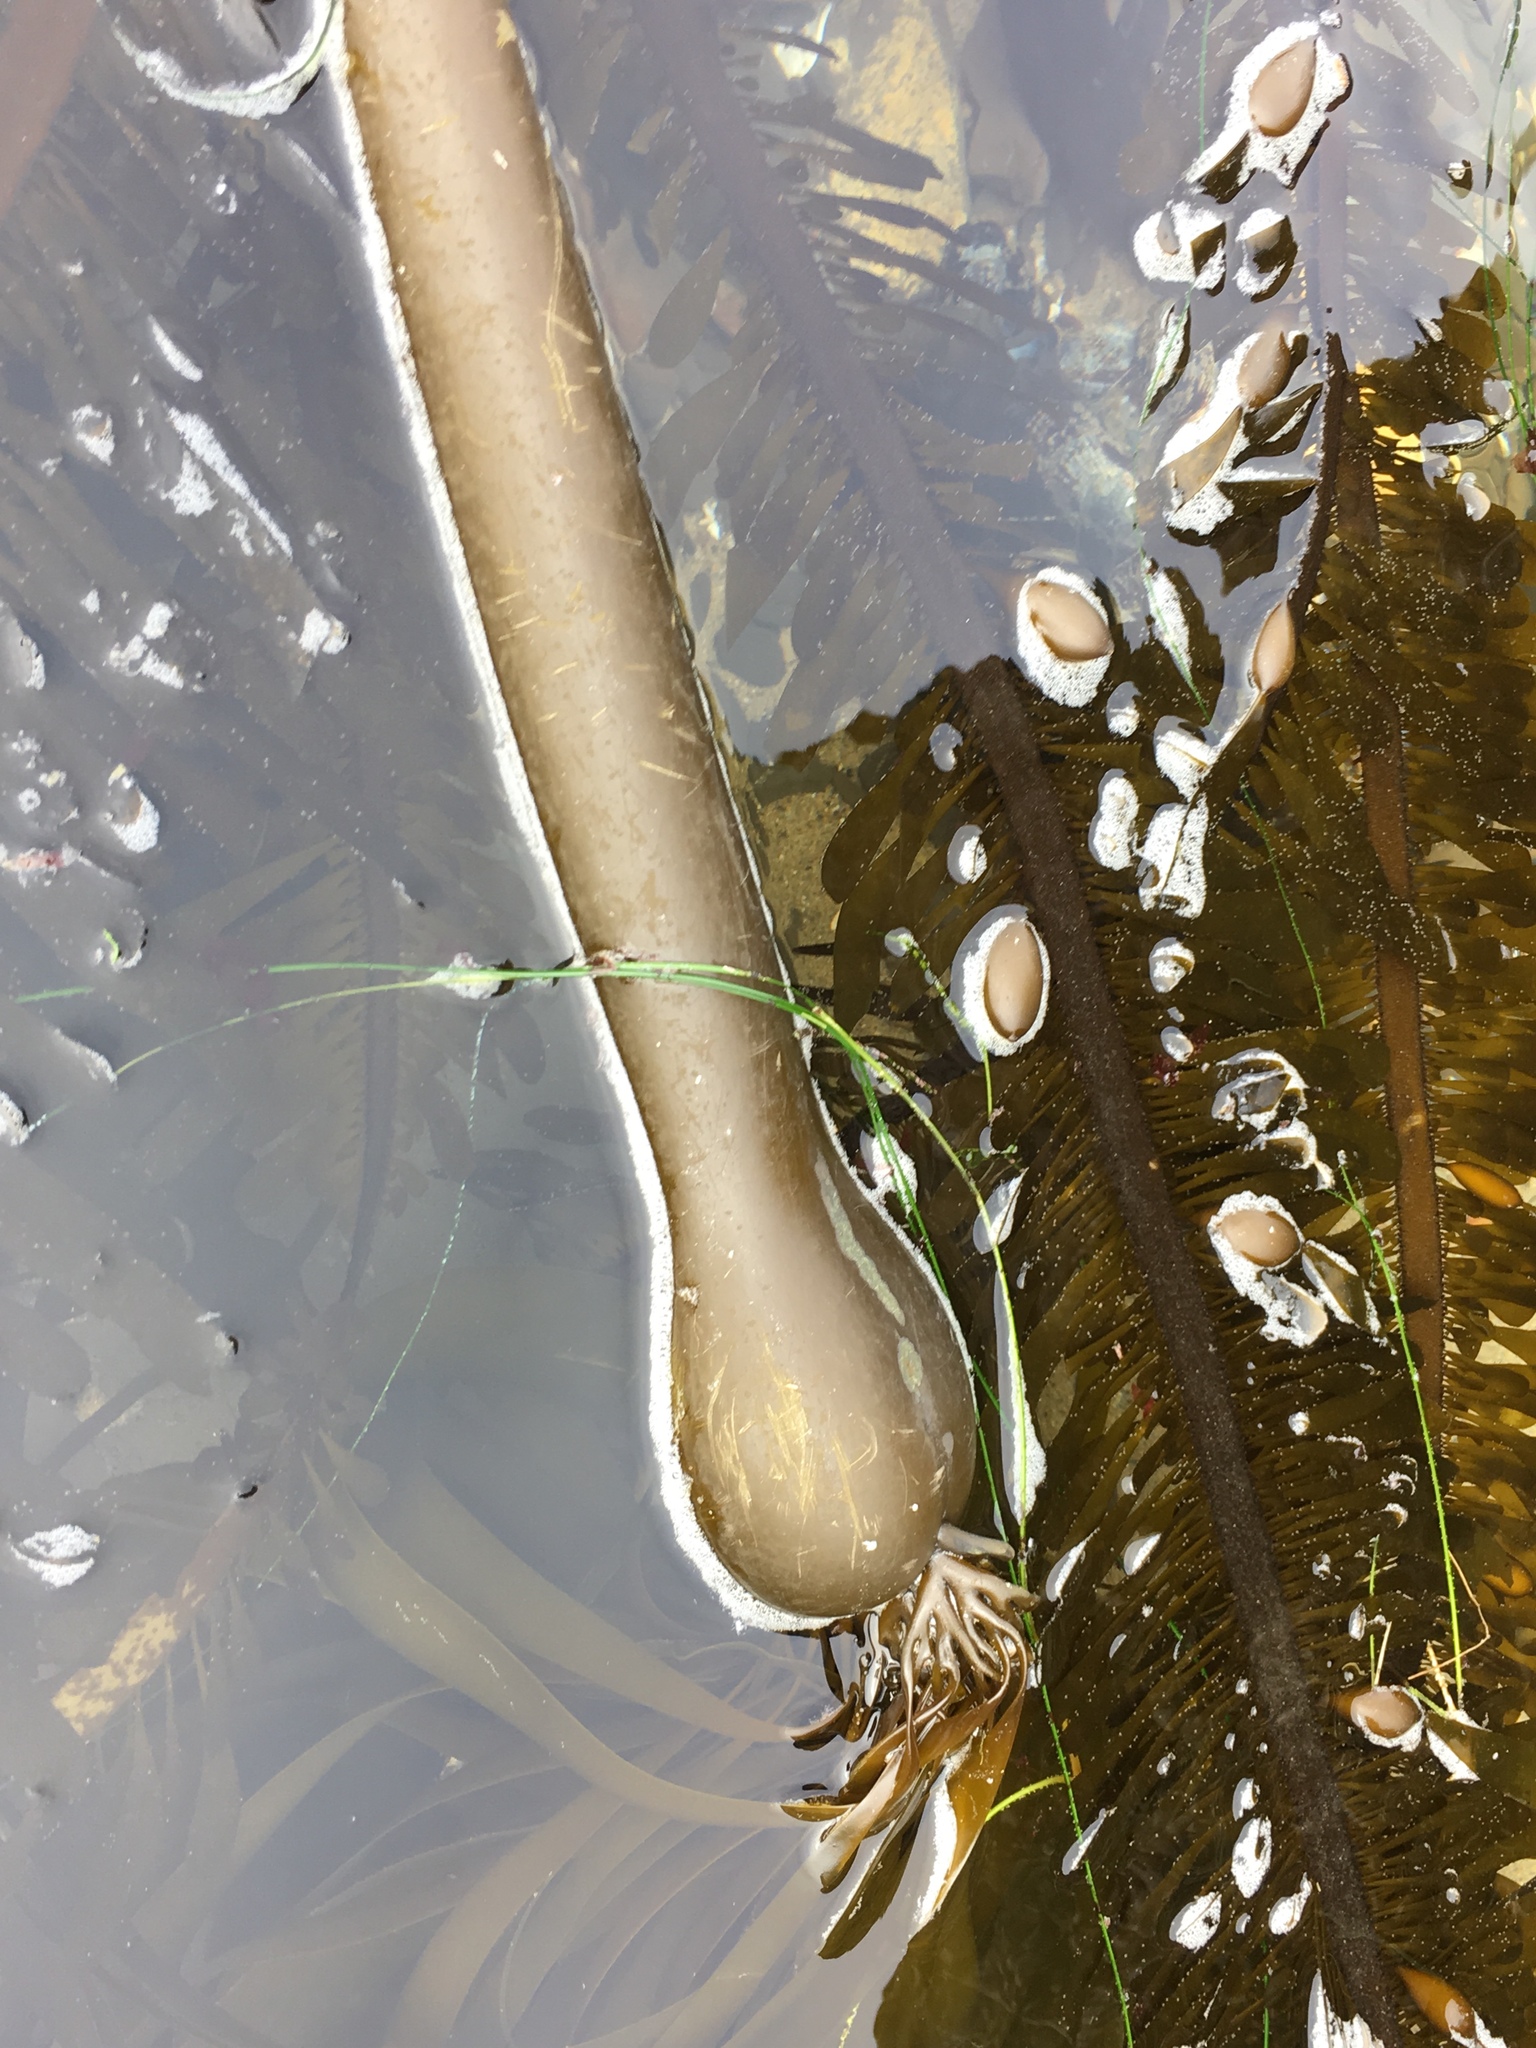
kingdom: Chromista
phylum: Ochrophyta
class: Phaeophyceae
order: Laminariales
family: Laminariaceae
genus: Nereocystis
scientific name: Nereocystis luetkeana
